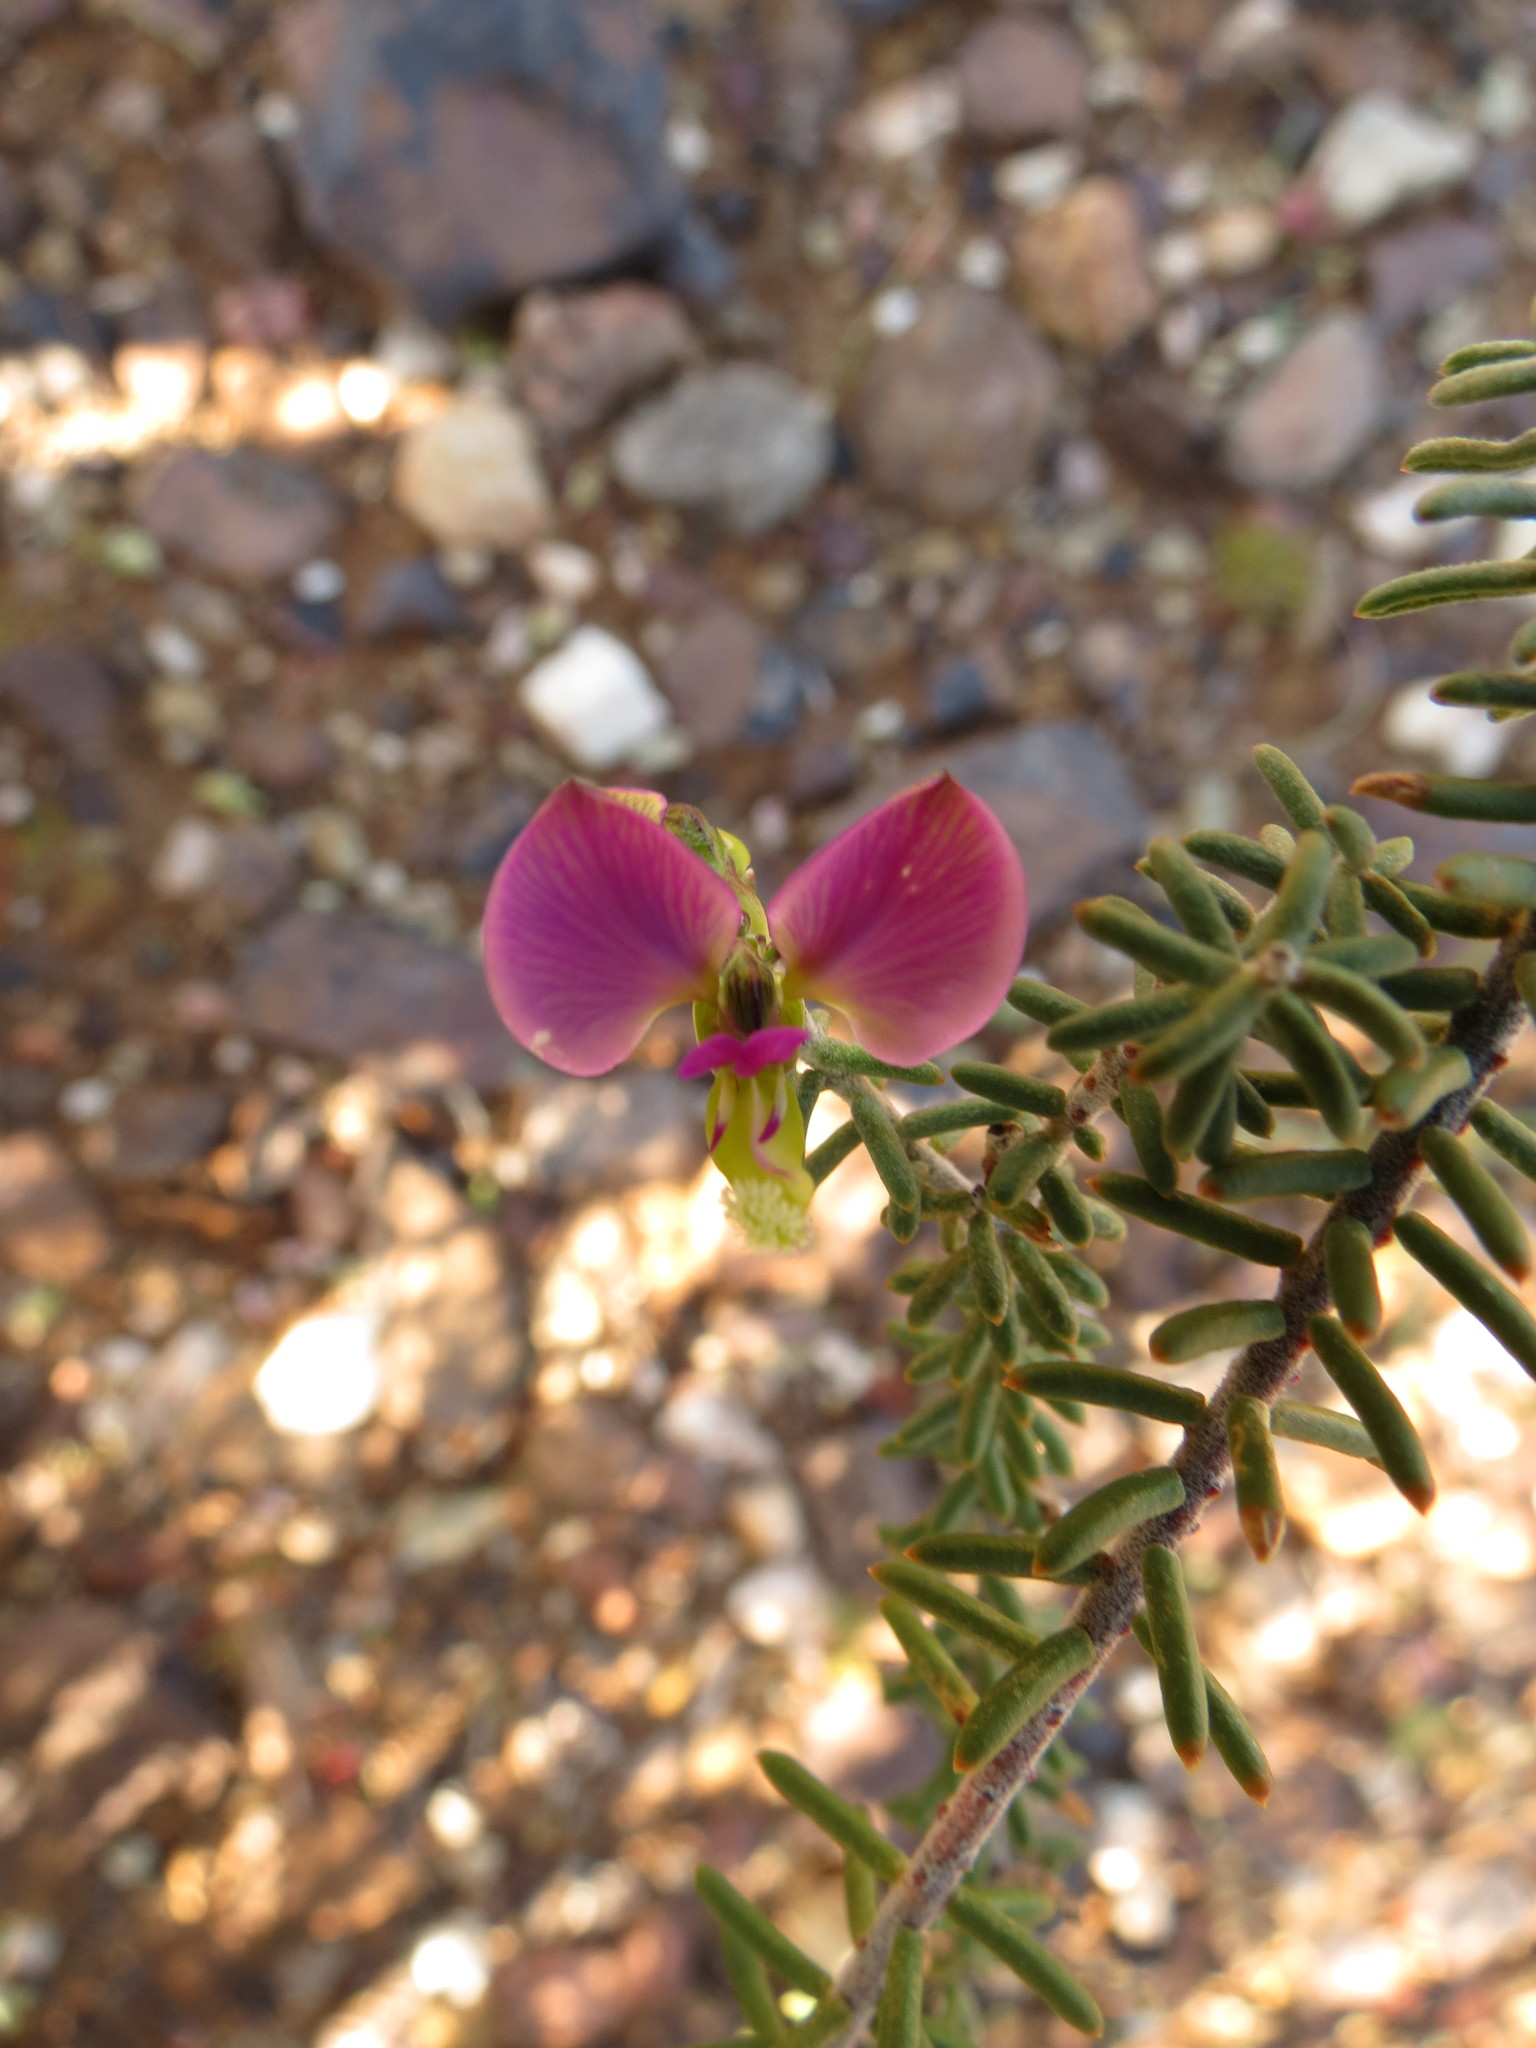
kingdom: Plantae
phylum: Tracheophyta
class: Magnoliopsida
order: Fabales
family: Polygalaceae
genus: Polygala
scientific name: Polygala teretifolia
